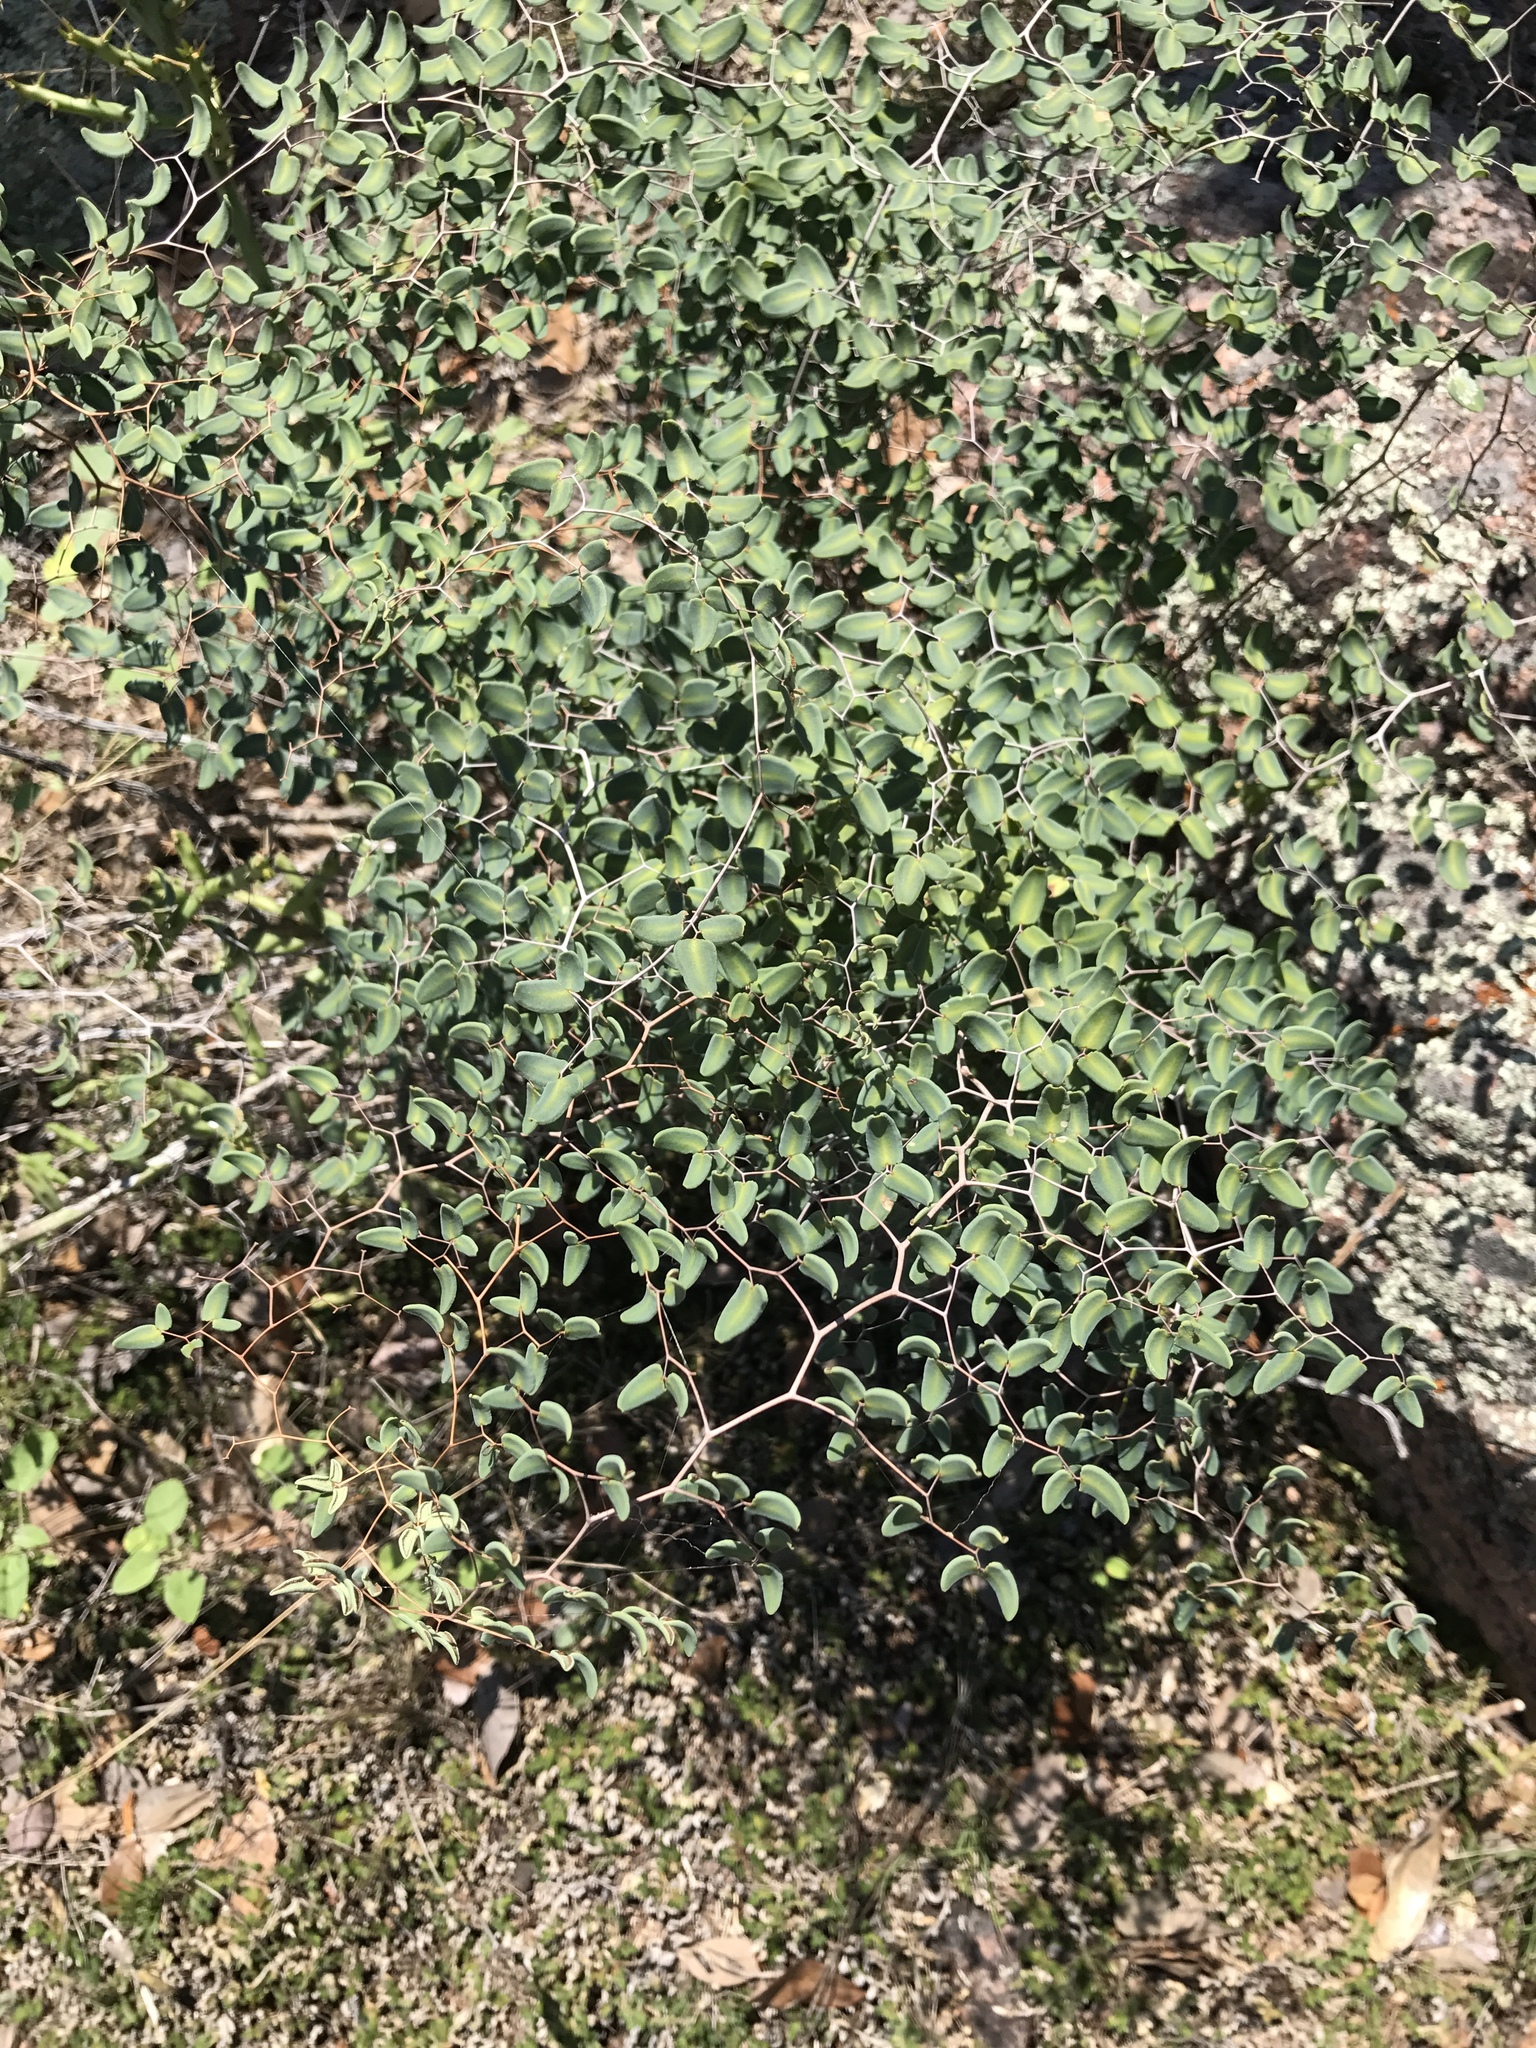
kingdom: Plantae
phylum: Tracheophyta
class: Polypodiopsida
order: Polypodiales
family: Pteridaceae
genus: Pellaea
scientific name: Pellaea ovata
